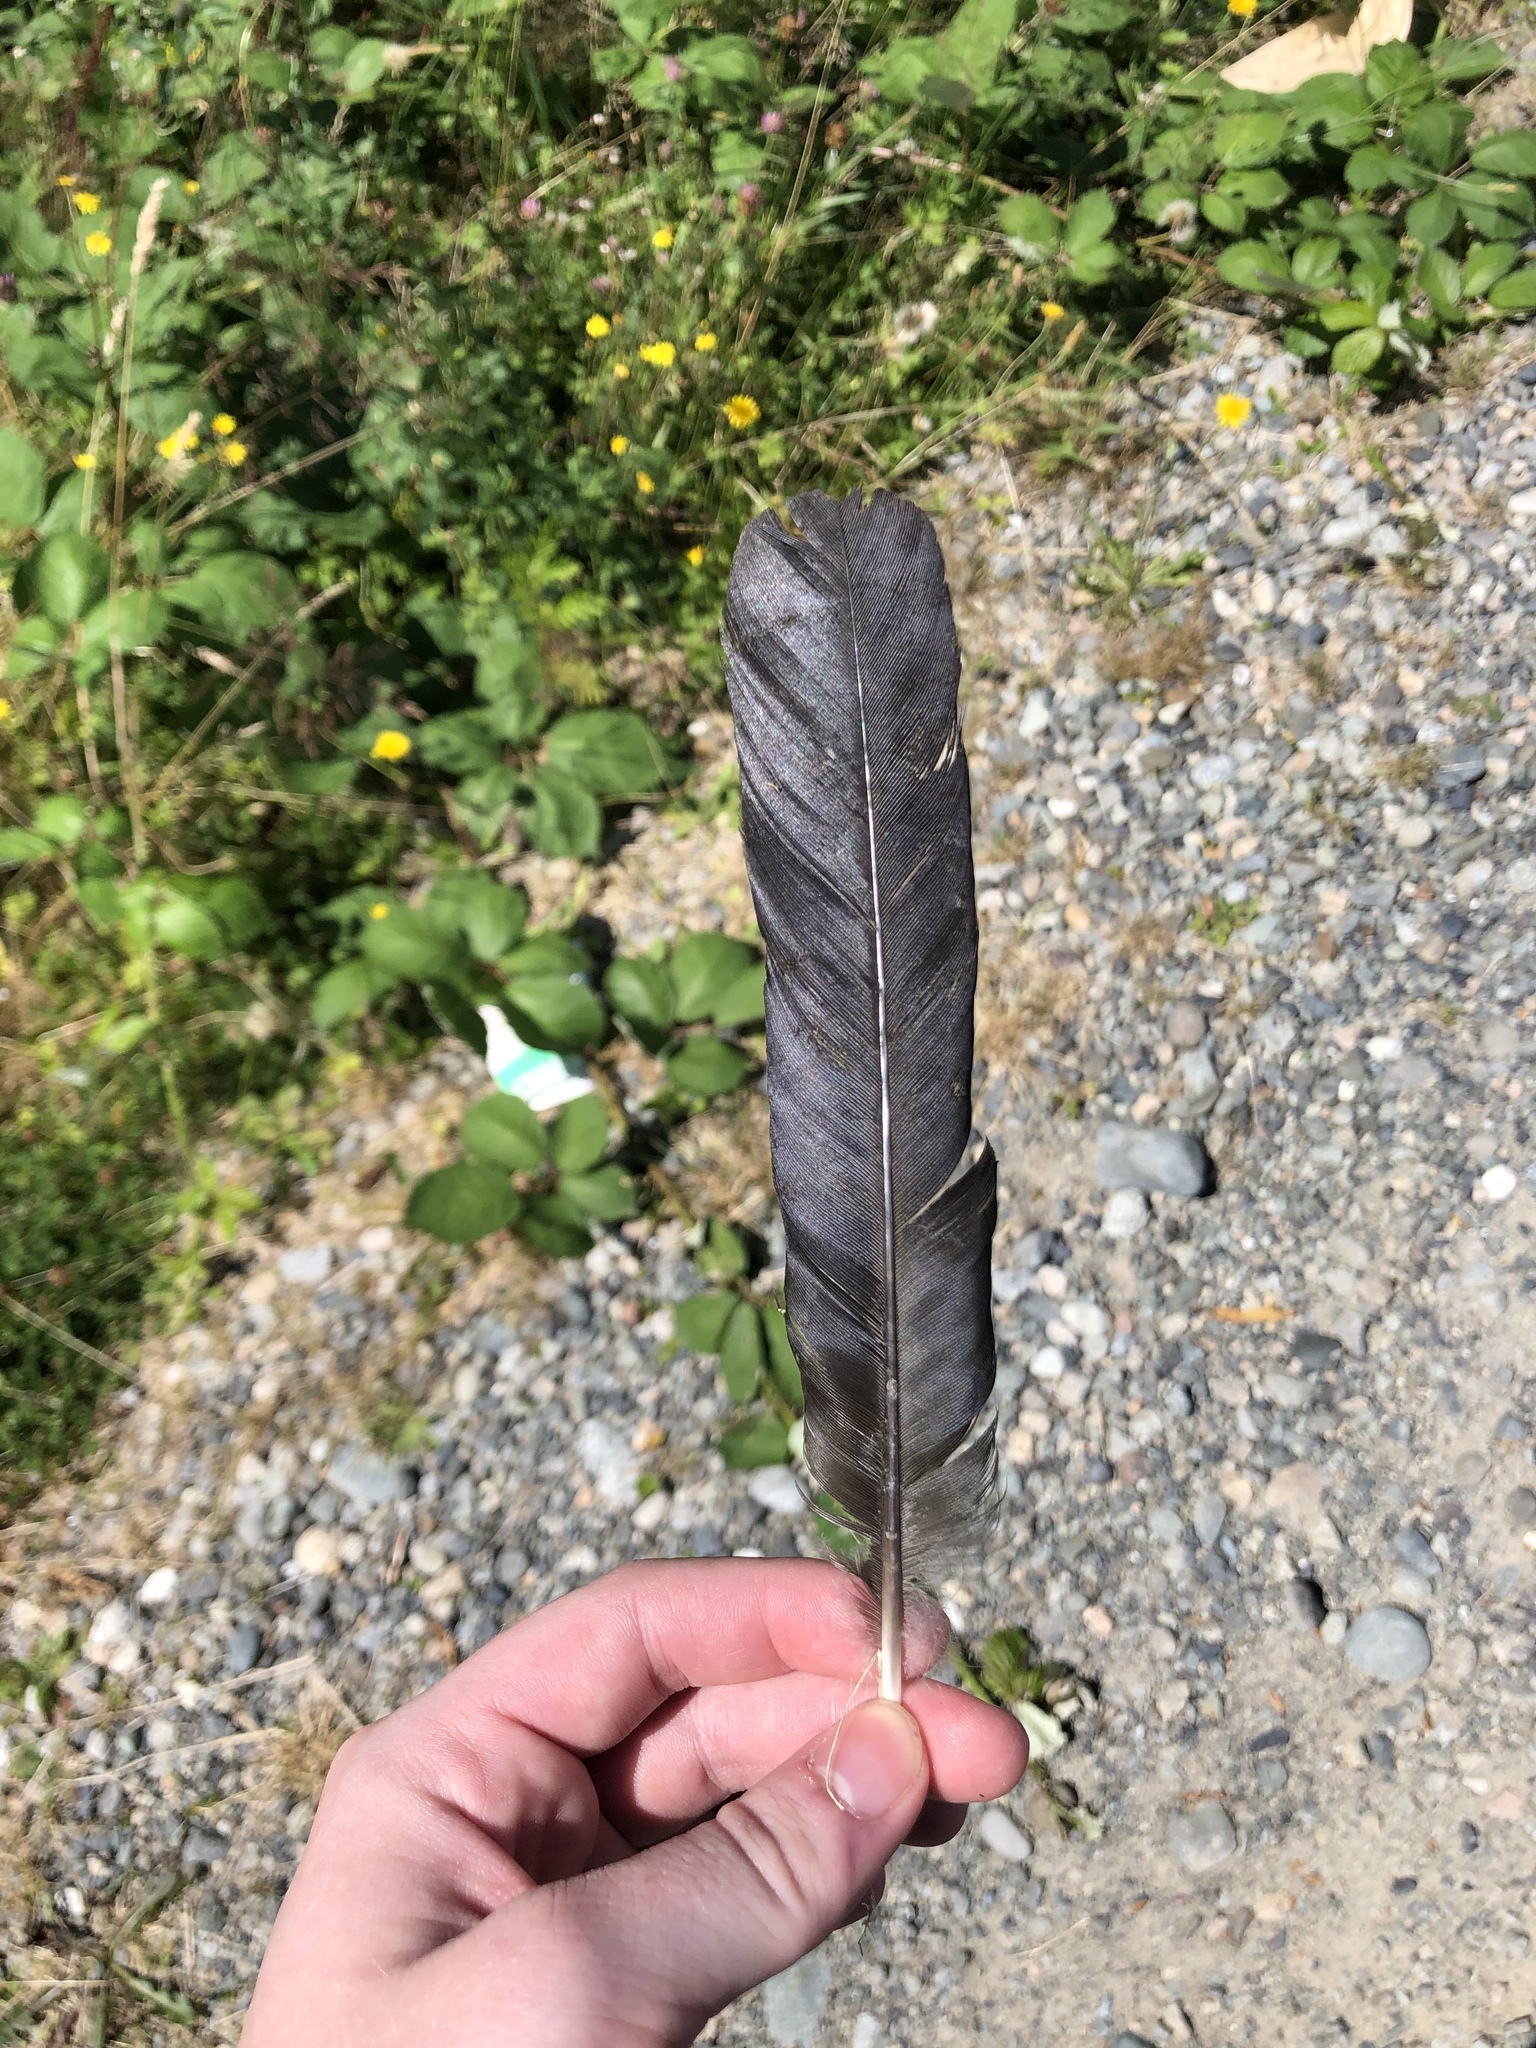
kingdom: Animalia
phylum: Chordata
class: Aves
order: Passeriformes
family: Corvidae
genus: Corvus
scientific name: Corvus brachyrhynchos
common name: American crow
